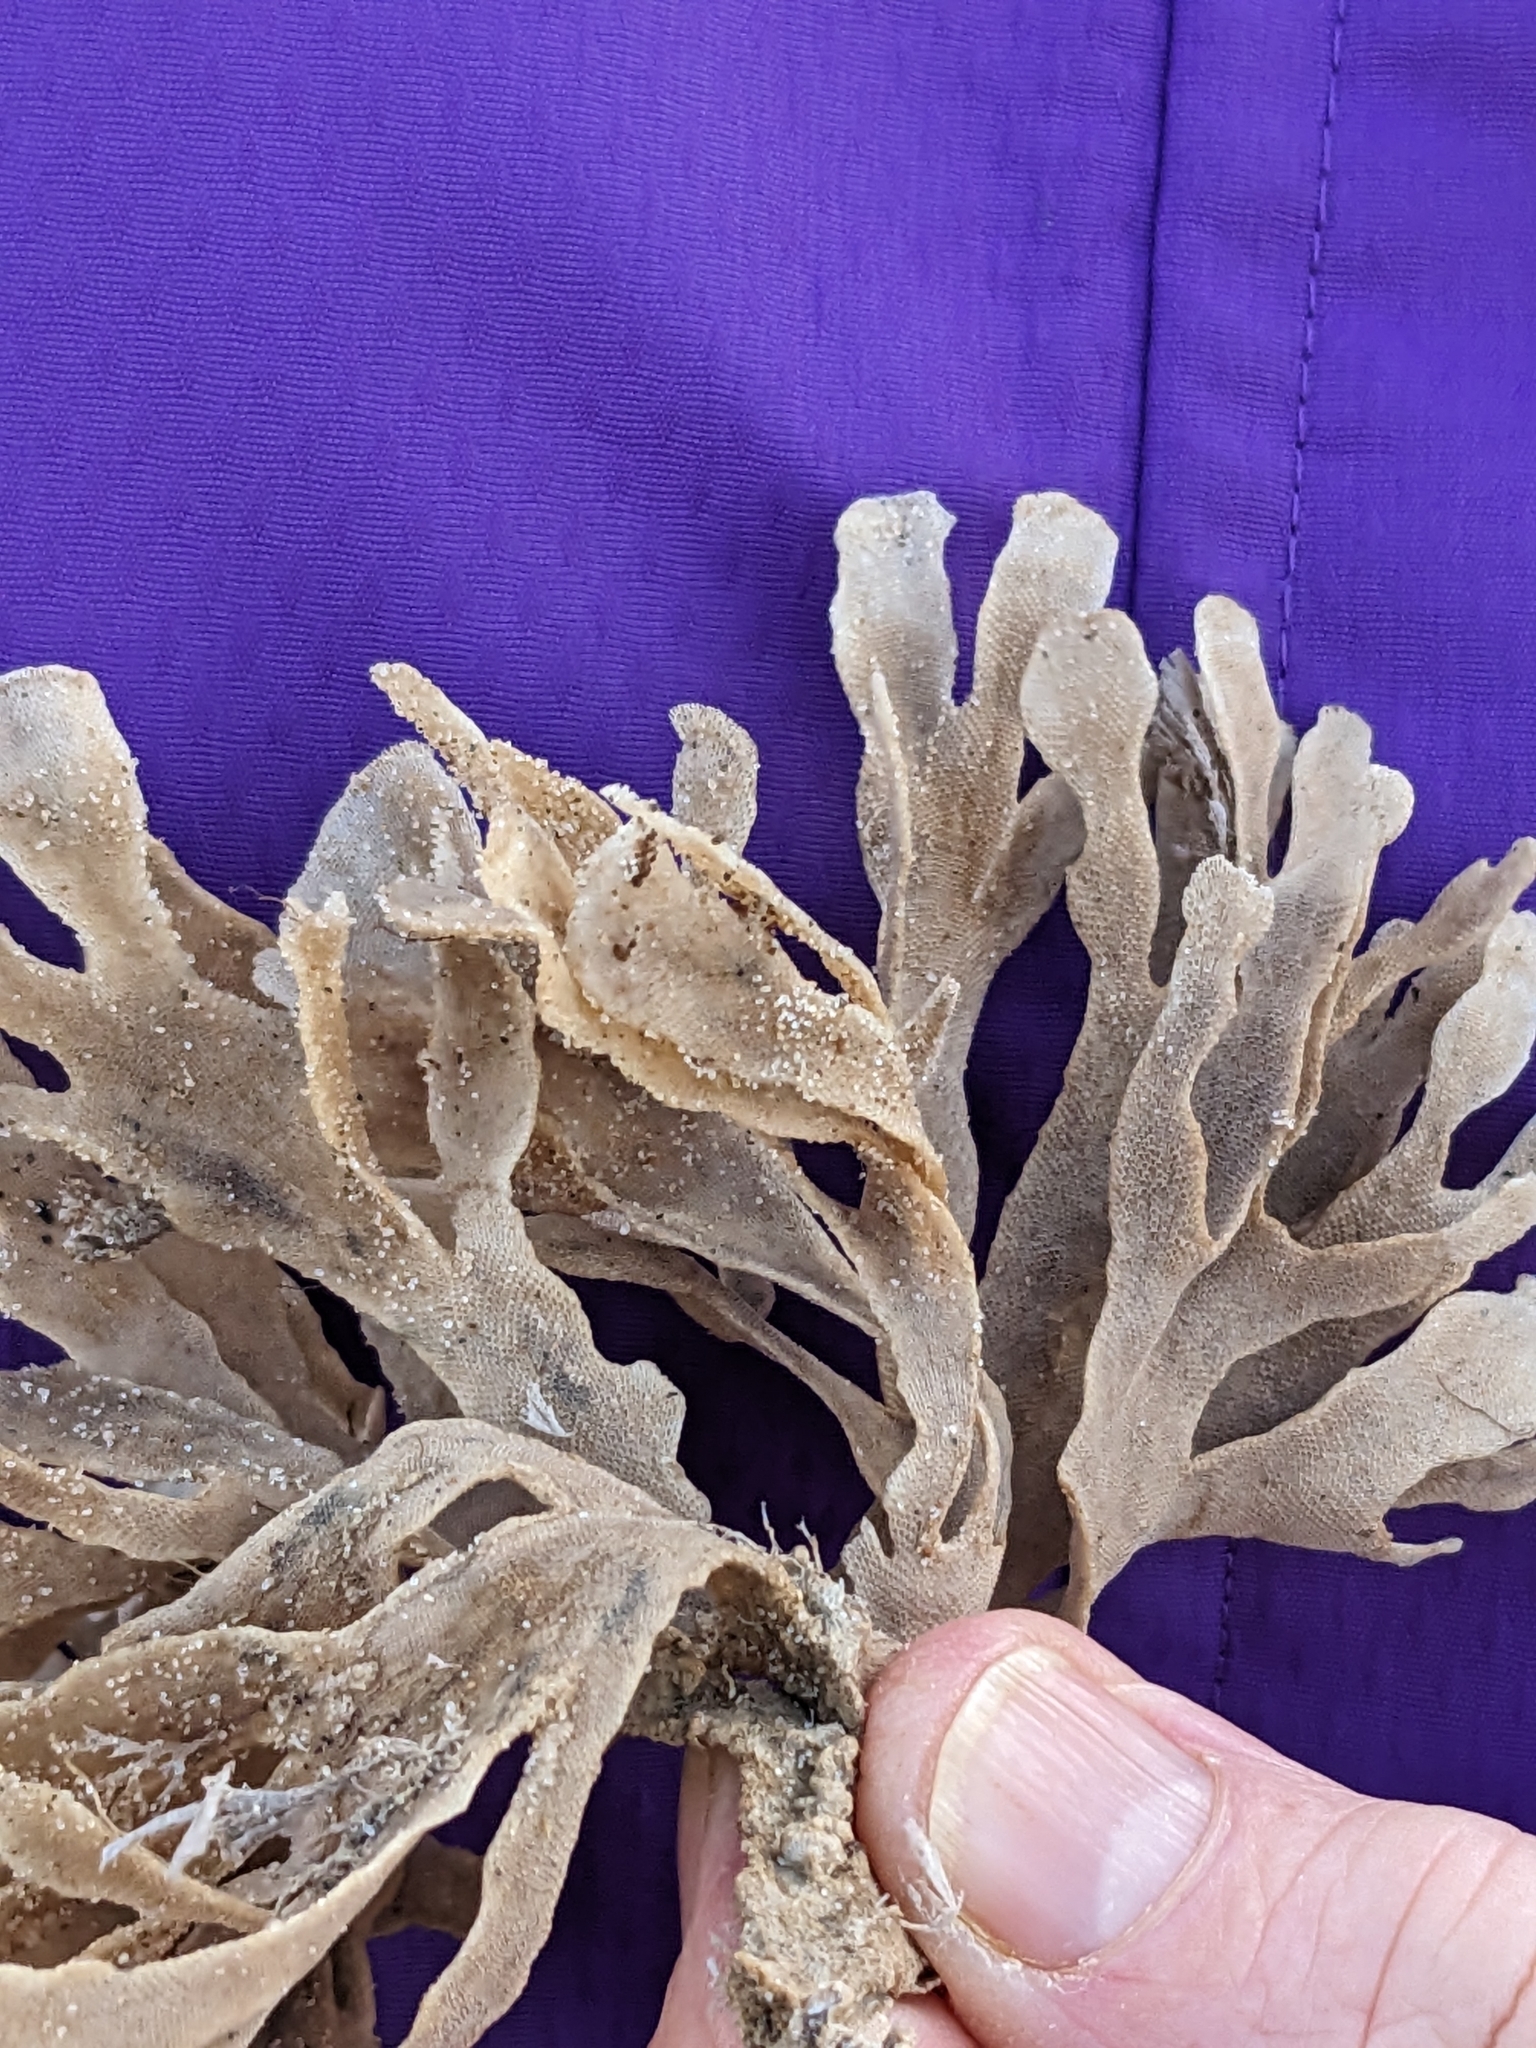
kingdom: Animalia
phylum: Bryozoa
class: Gymnolaemata
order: Cheilostomatida
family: Flustridae
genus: Flustra
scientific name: Flustra foliacea
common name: Hornwrack
